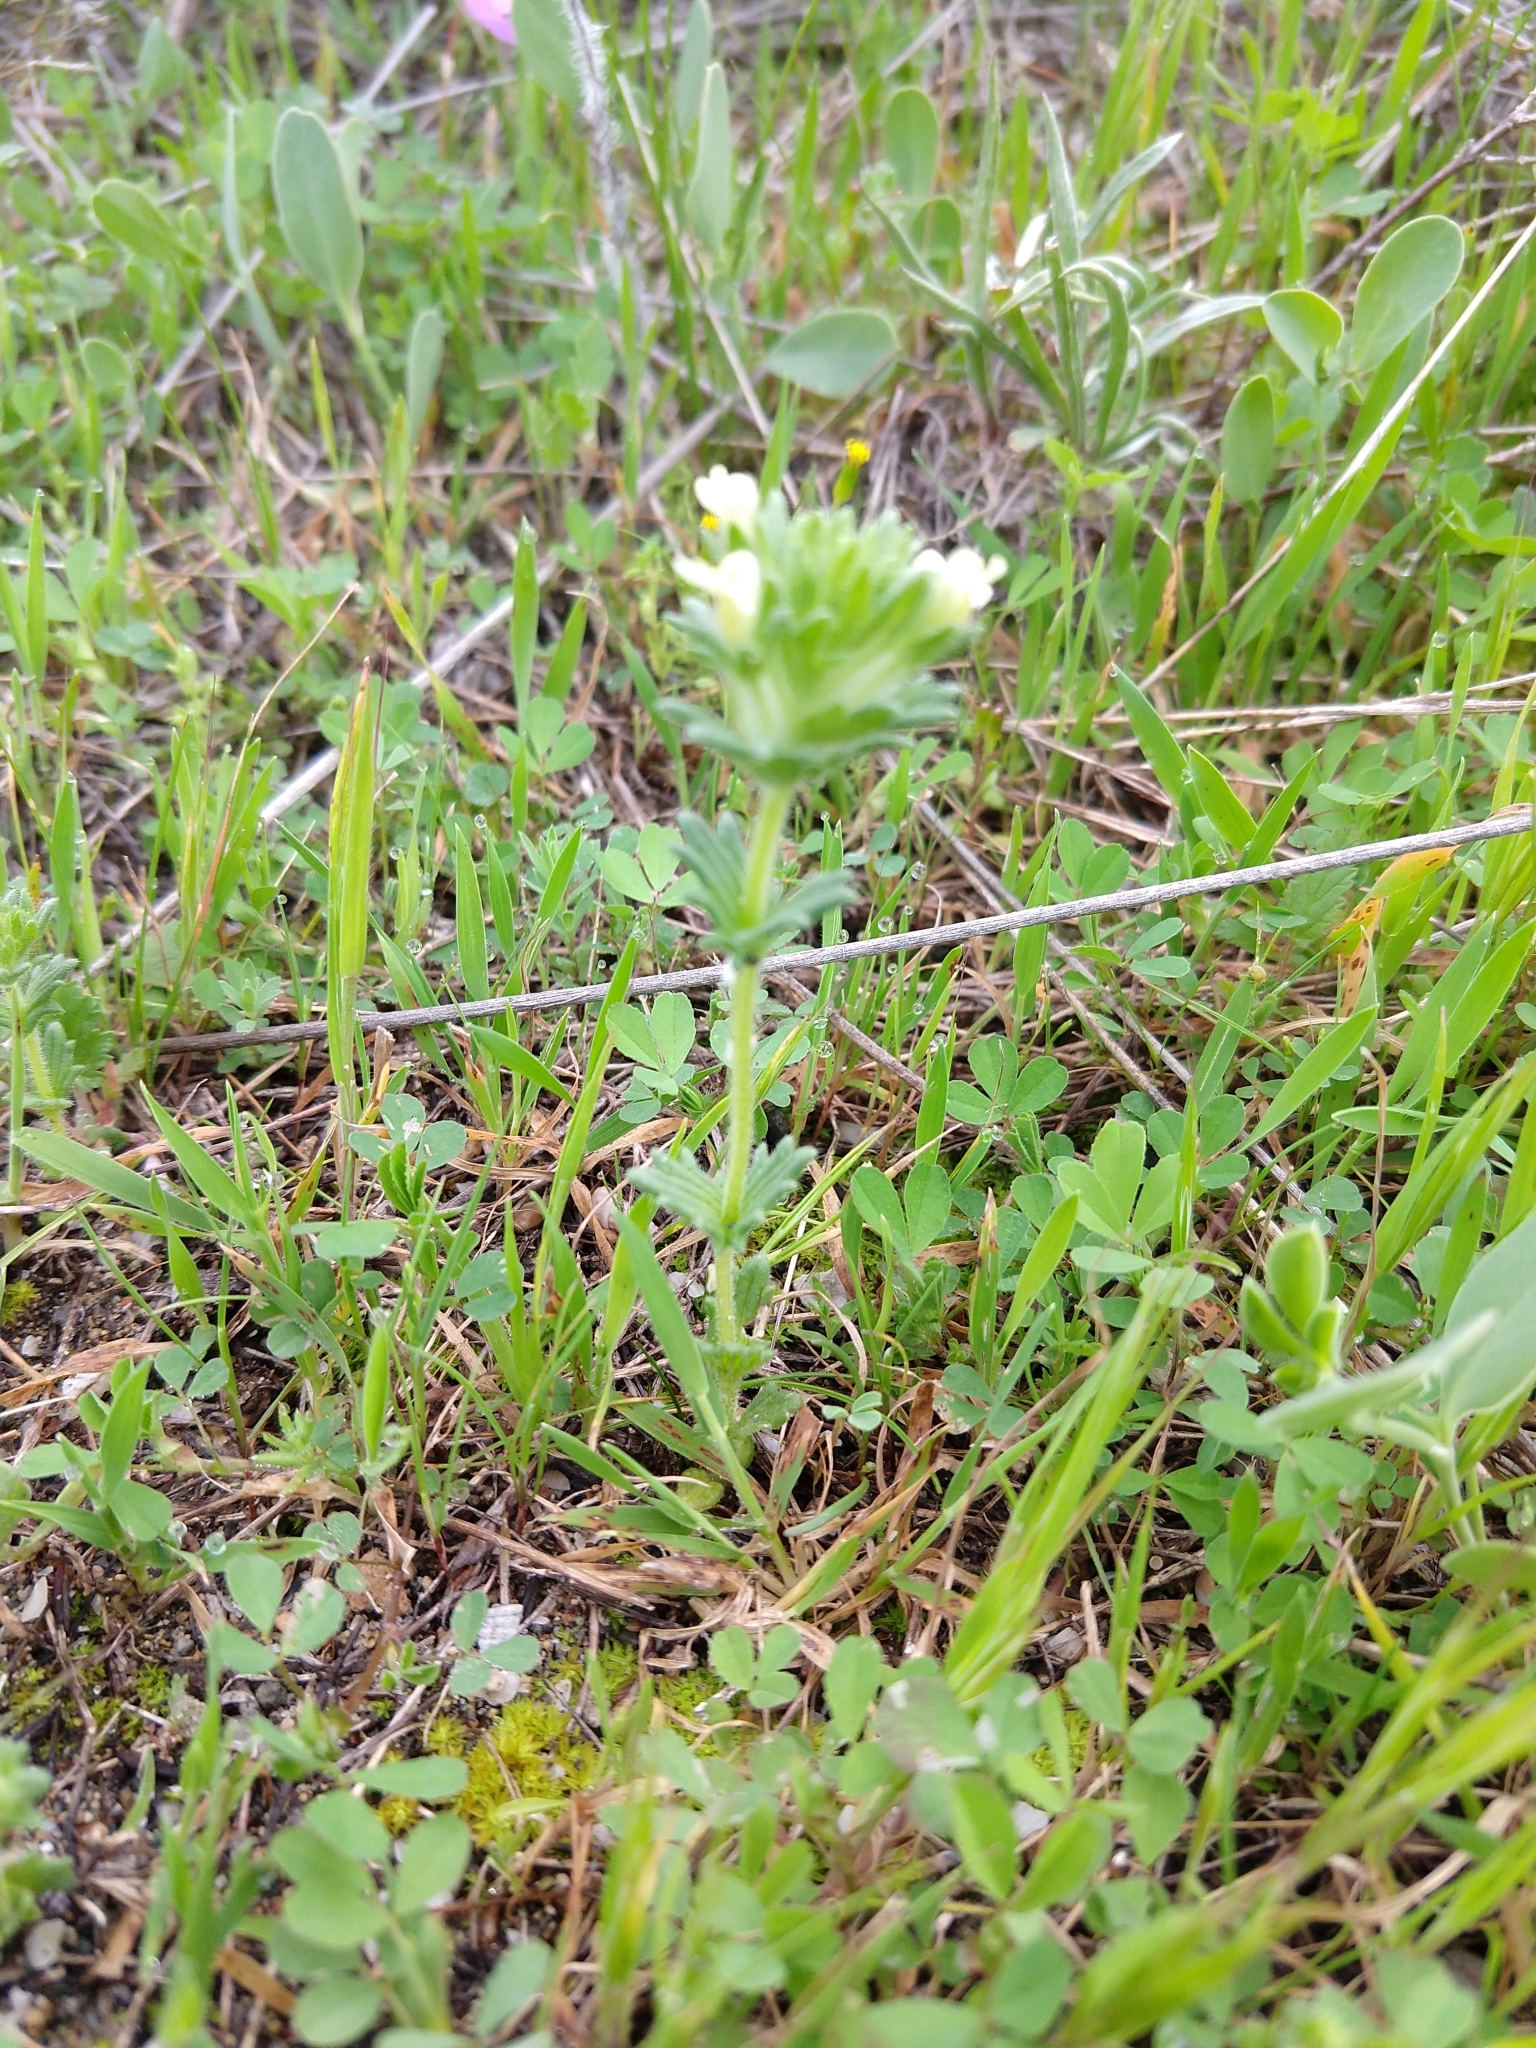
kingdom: Plantae
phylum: Tracheophyta
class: Magnoliopsida
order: Lamiales
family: Orobanchaceae
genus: Parentucellia
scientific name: Parentucellia flaviflora
